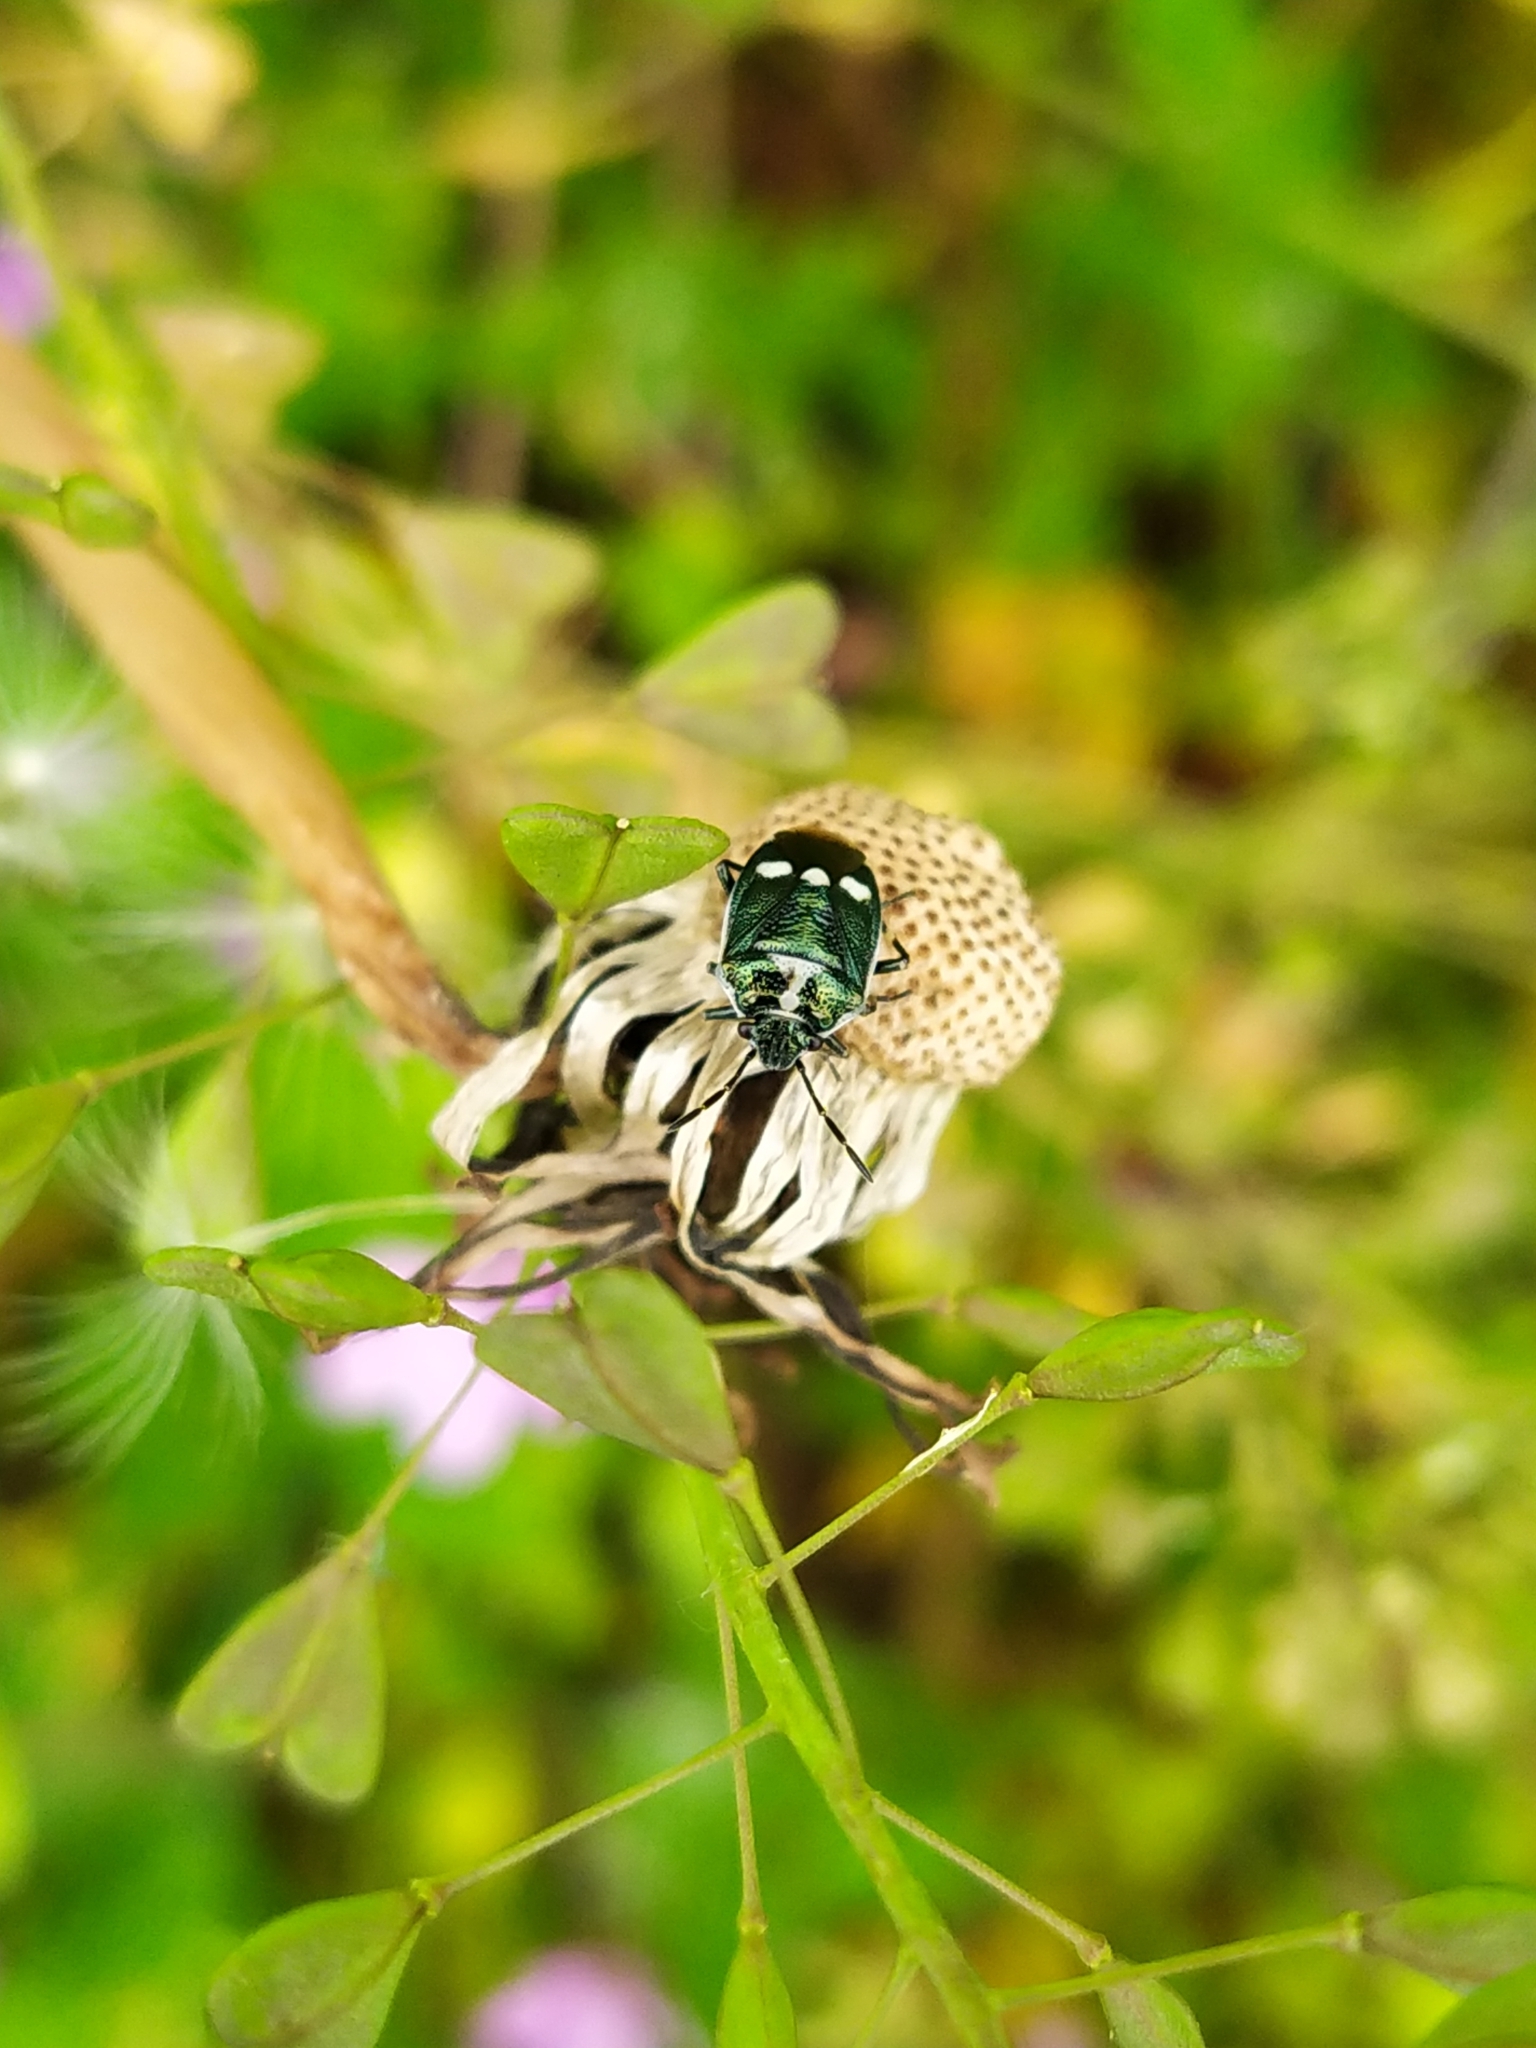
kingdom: Animalia
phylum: Arthropoda
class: Insecta
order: Hemiptera
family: Pentatomidae
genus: Eurydema
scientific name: Eurydema oleracea
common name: Cabbage bug
